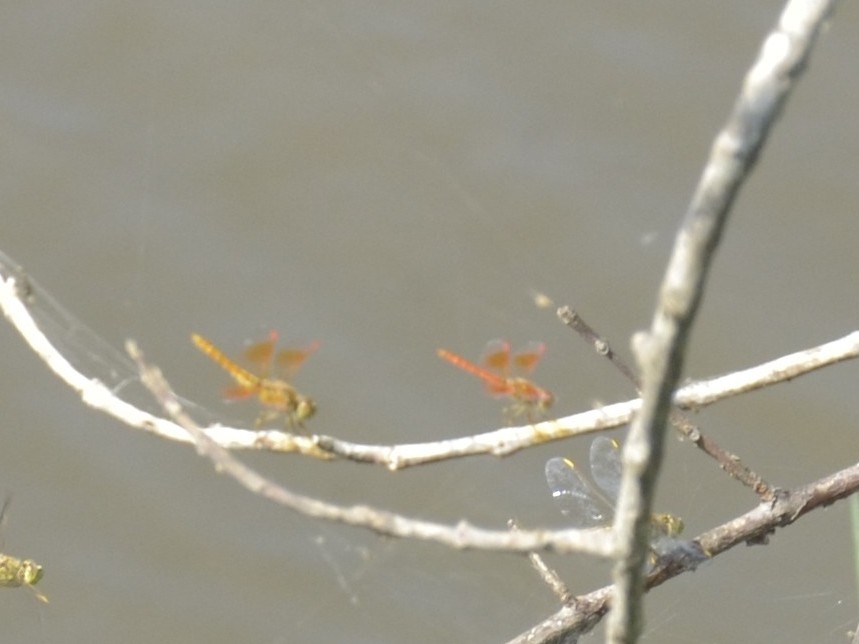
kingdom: Animalia
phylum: Arthropoda
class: Insecta
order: Odonata
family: Libellulidae
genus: Brachythemis
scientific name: Brachythemis contaminata
